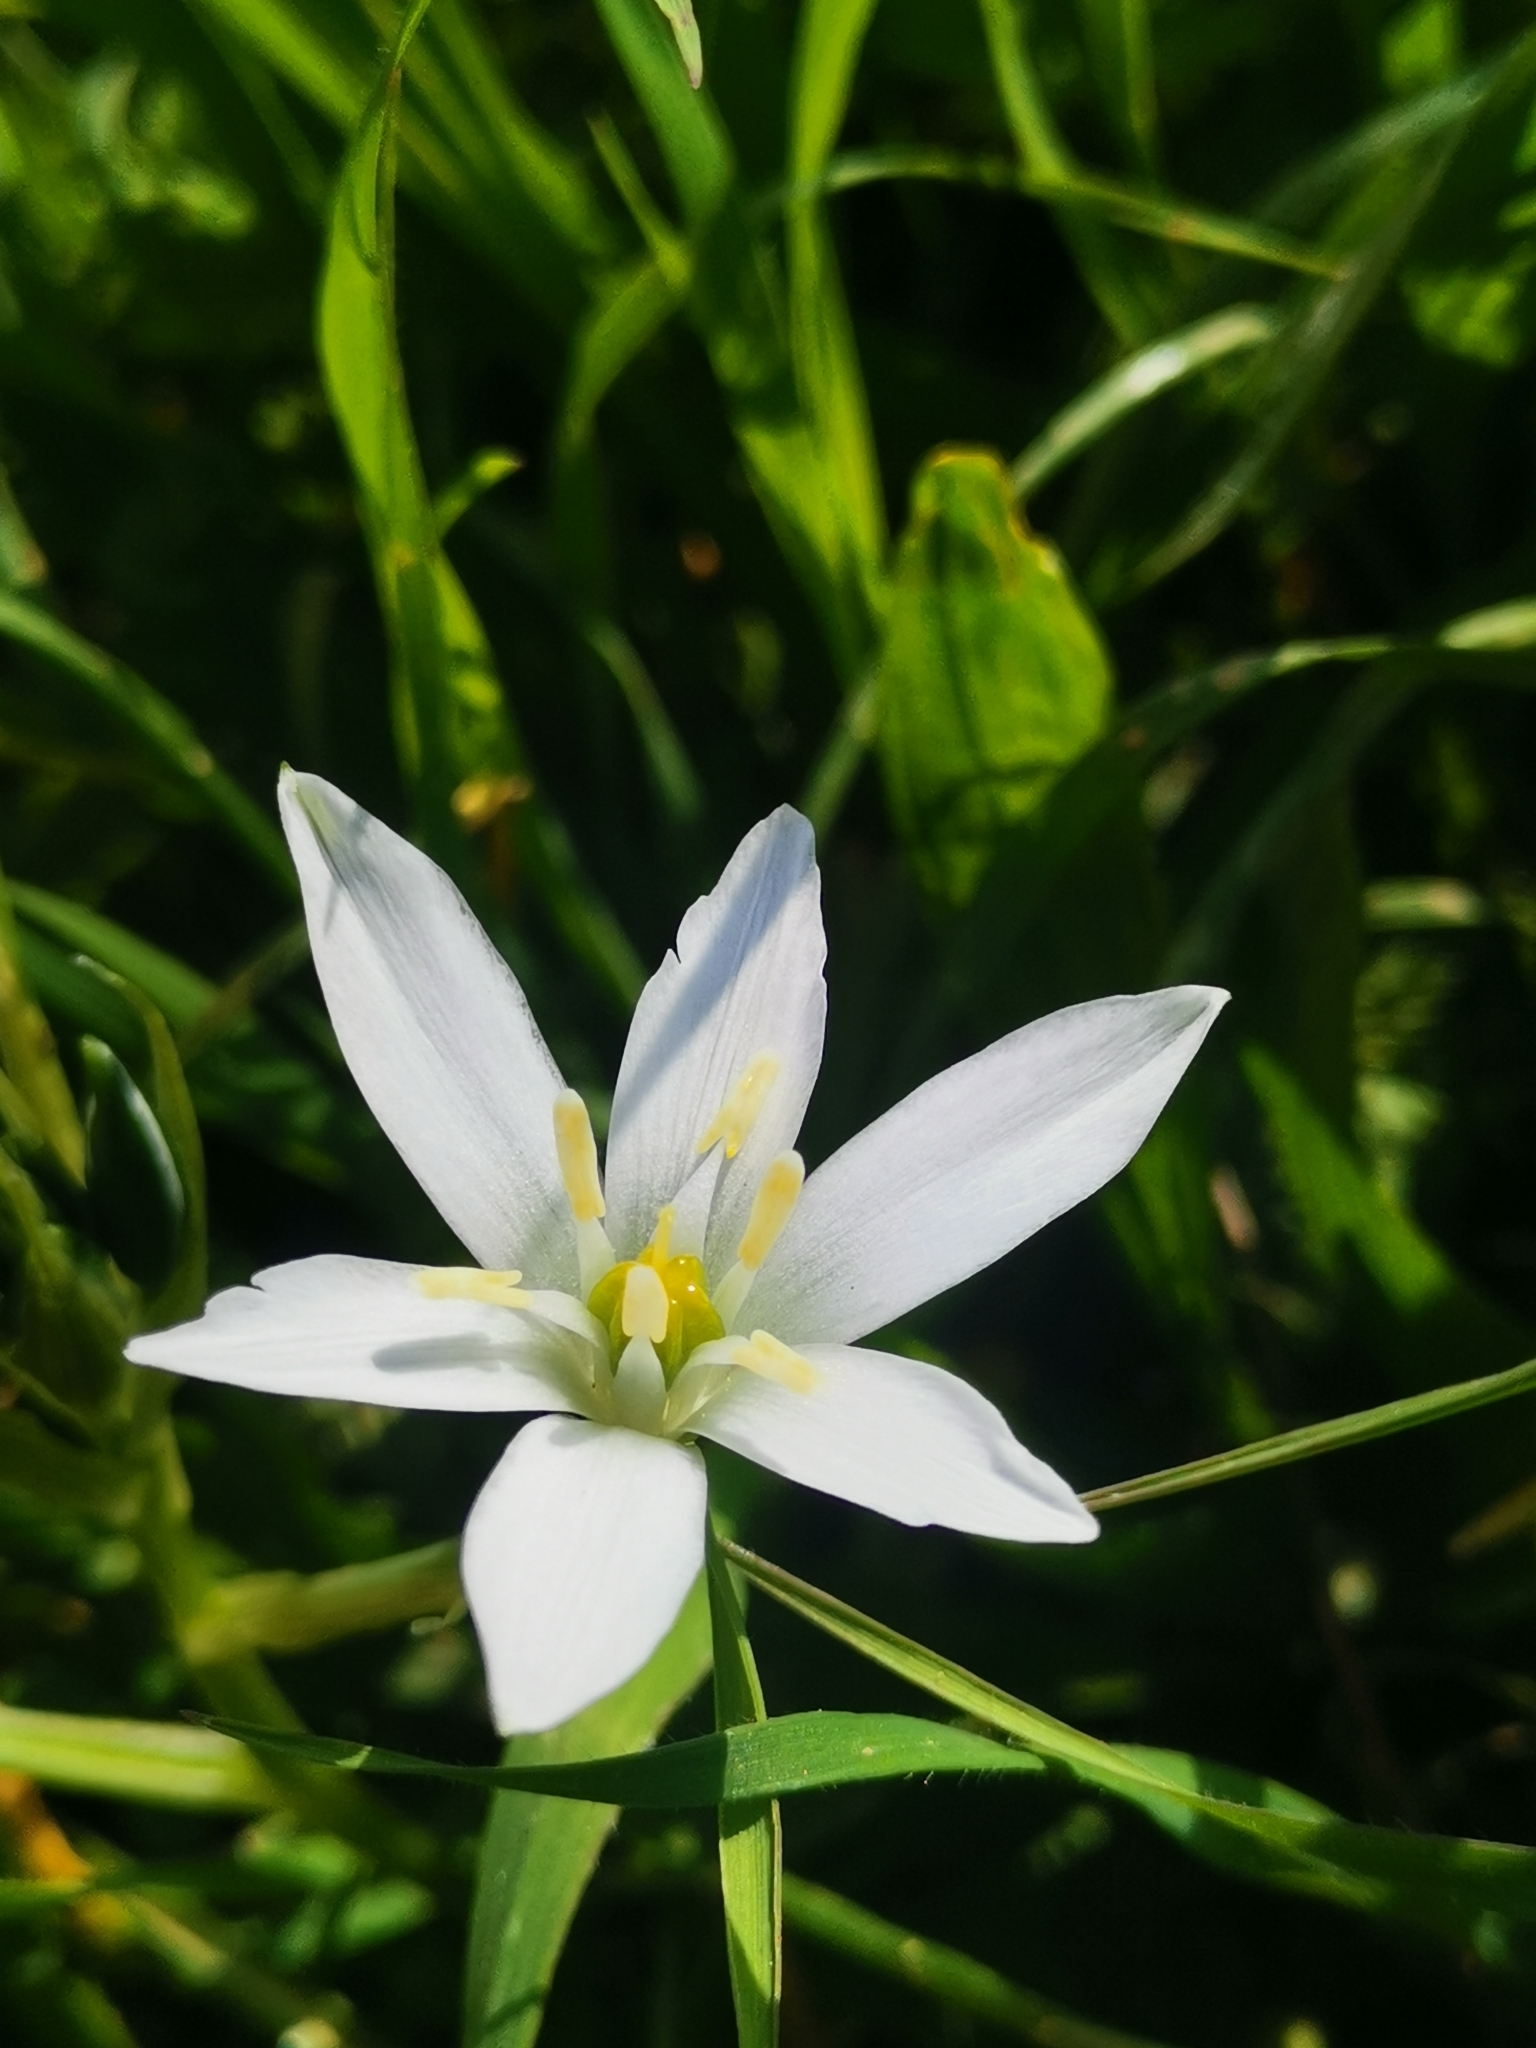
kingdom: Plantae
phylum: Tracheophyta
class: Liliopsida
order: Asparagales
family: Asparagaceae
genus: Ornithogalum
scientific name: Ornithogalum divergens
